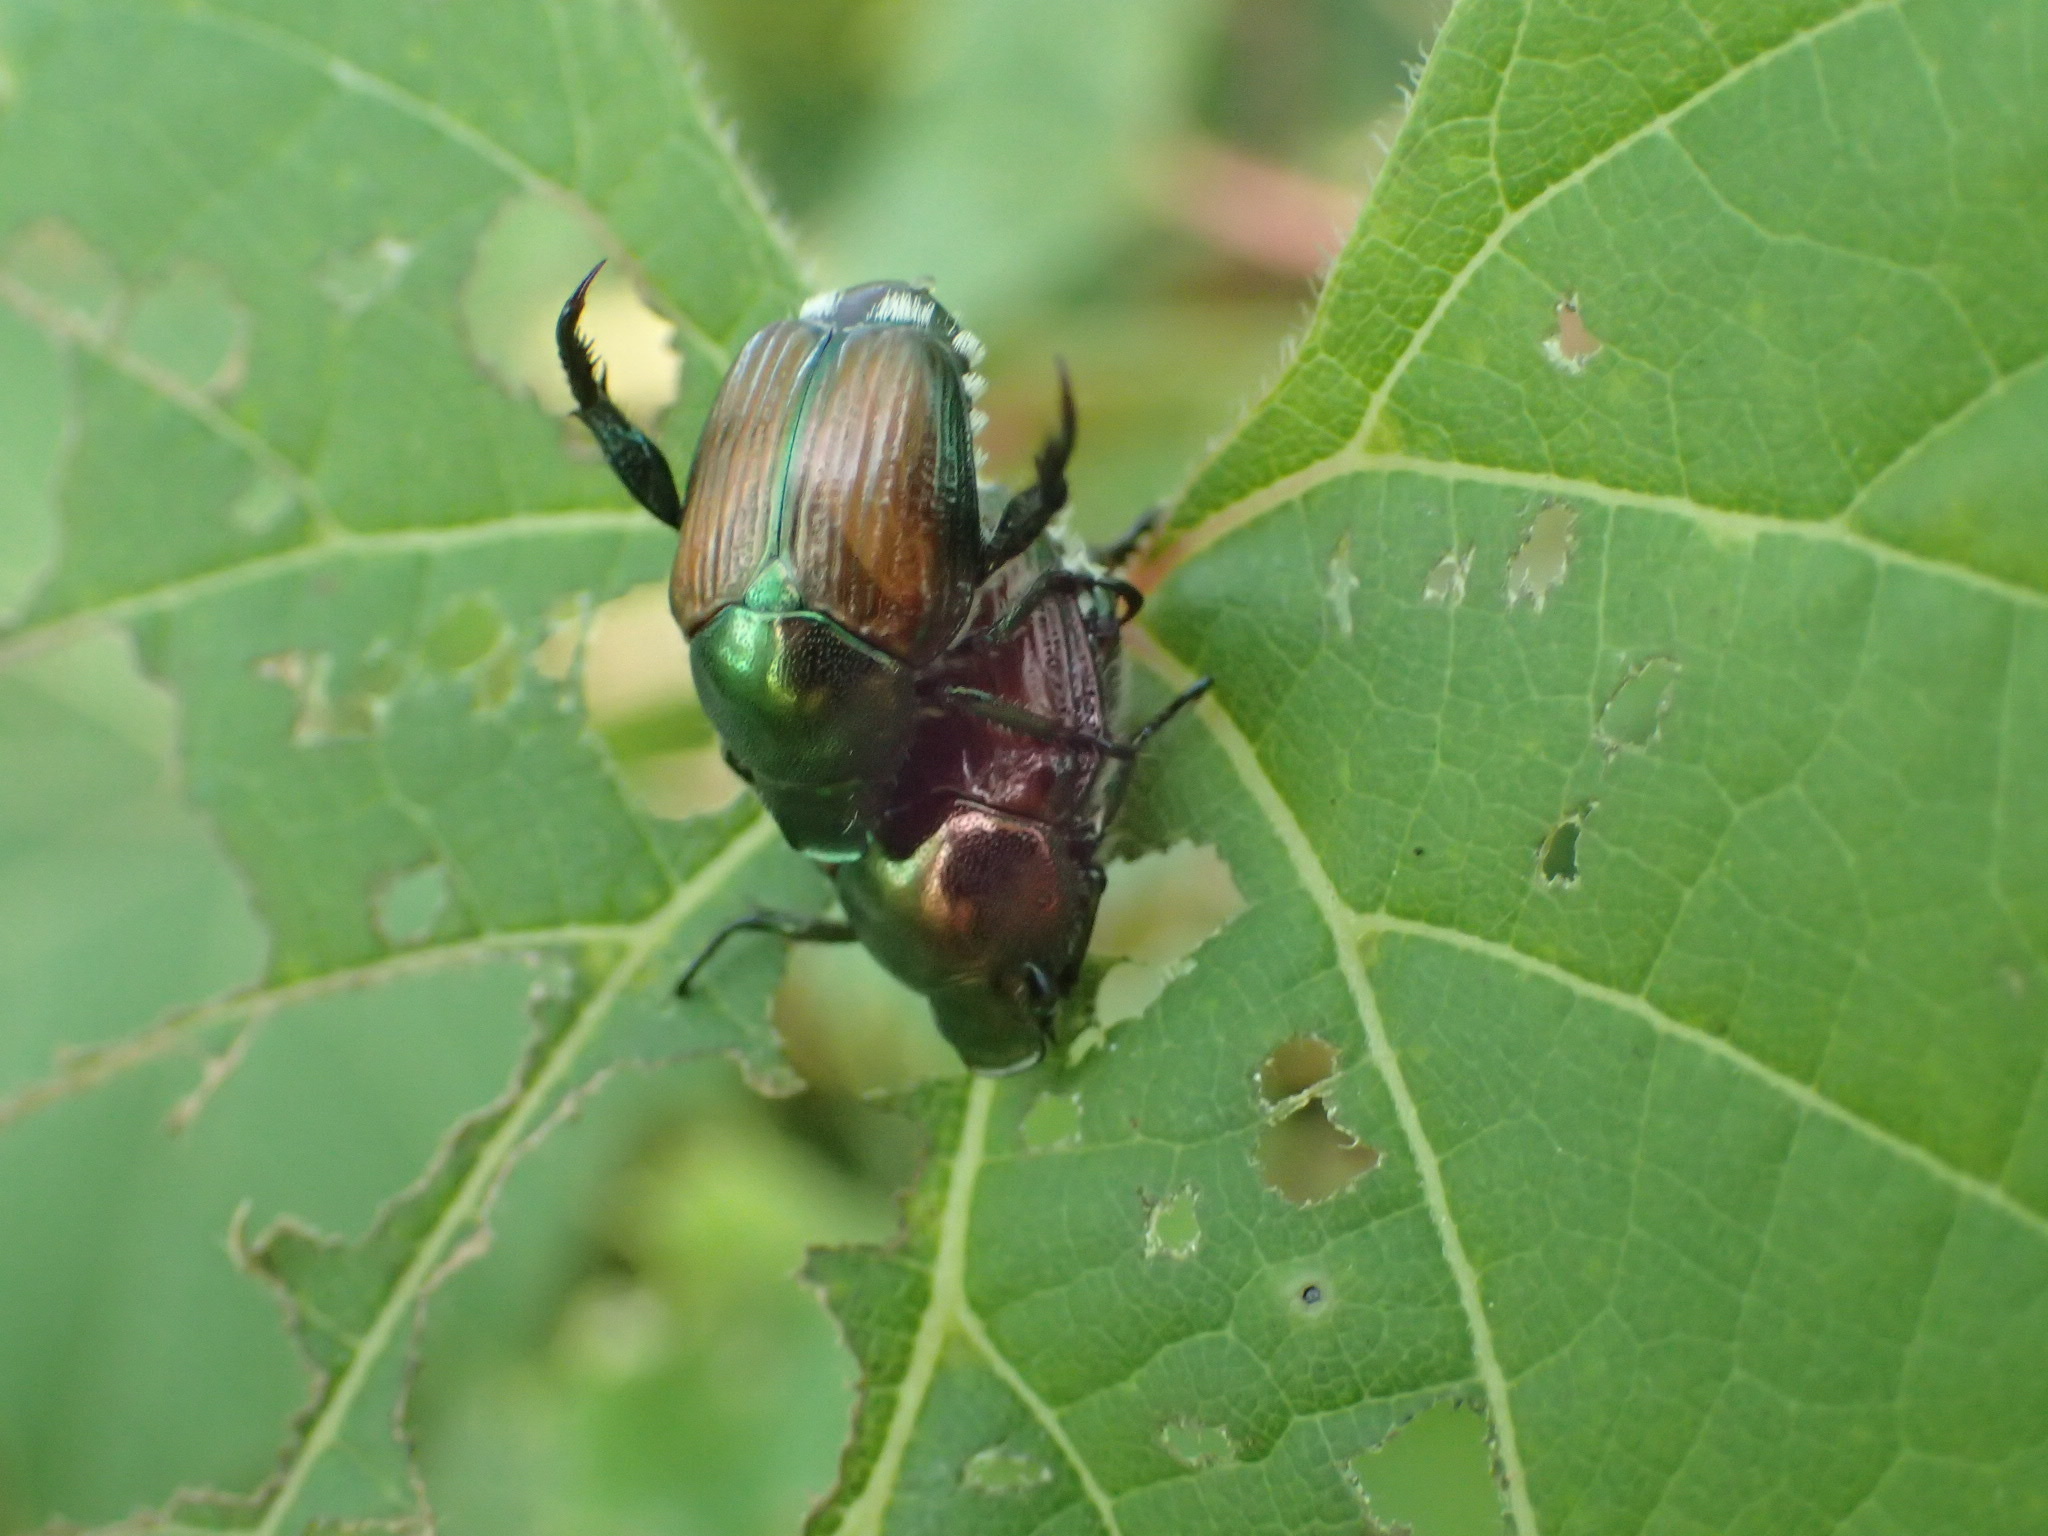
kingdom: Animalia
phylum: Arthropoda
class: Insecta
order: Coleoptera
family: Scarabaeidae
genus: Popillia
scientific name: Popillia japonica
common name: Japanese beetle
